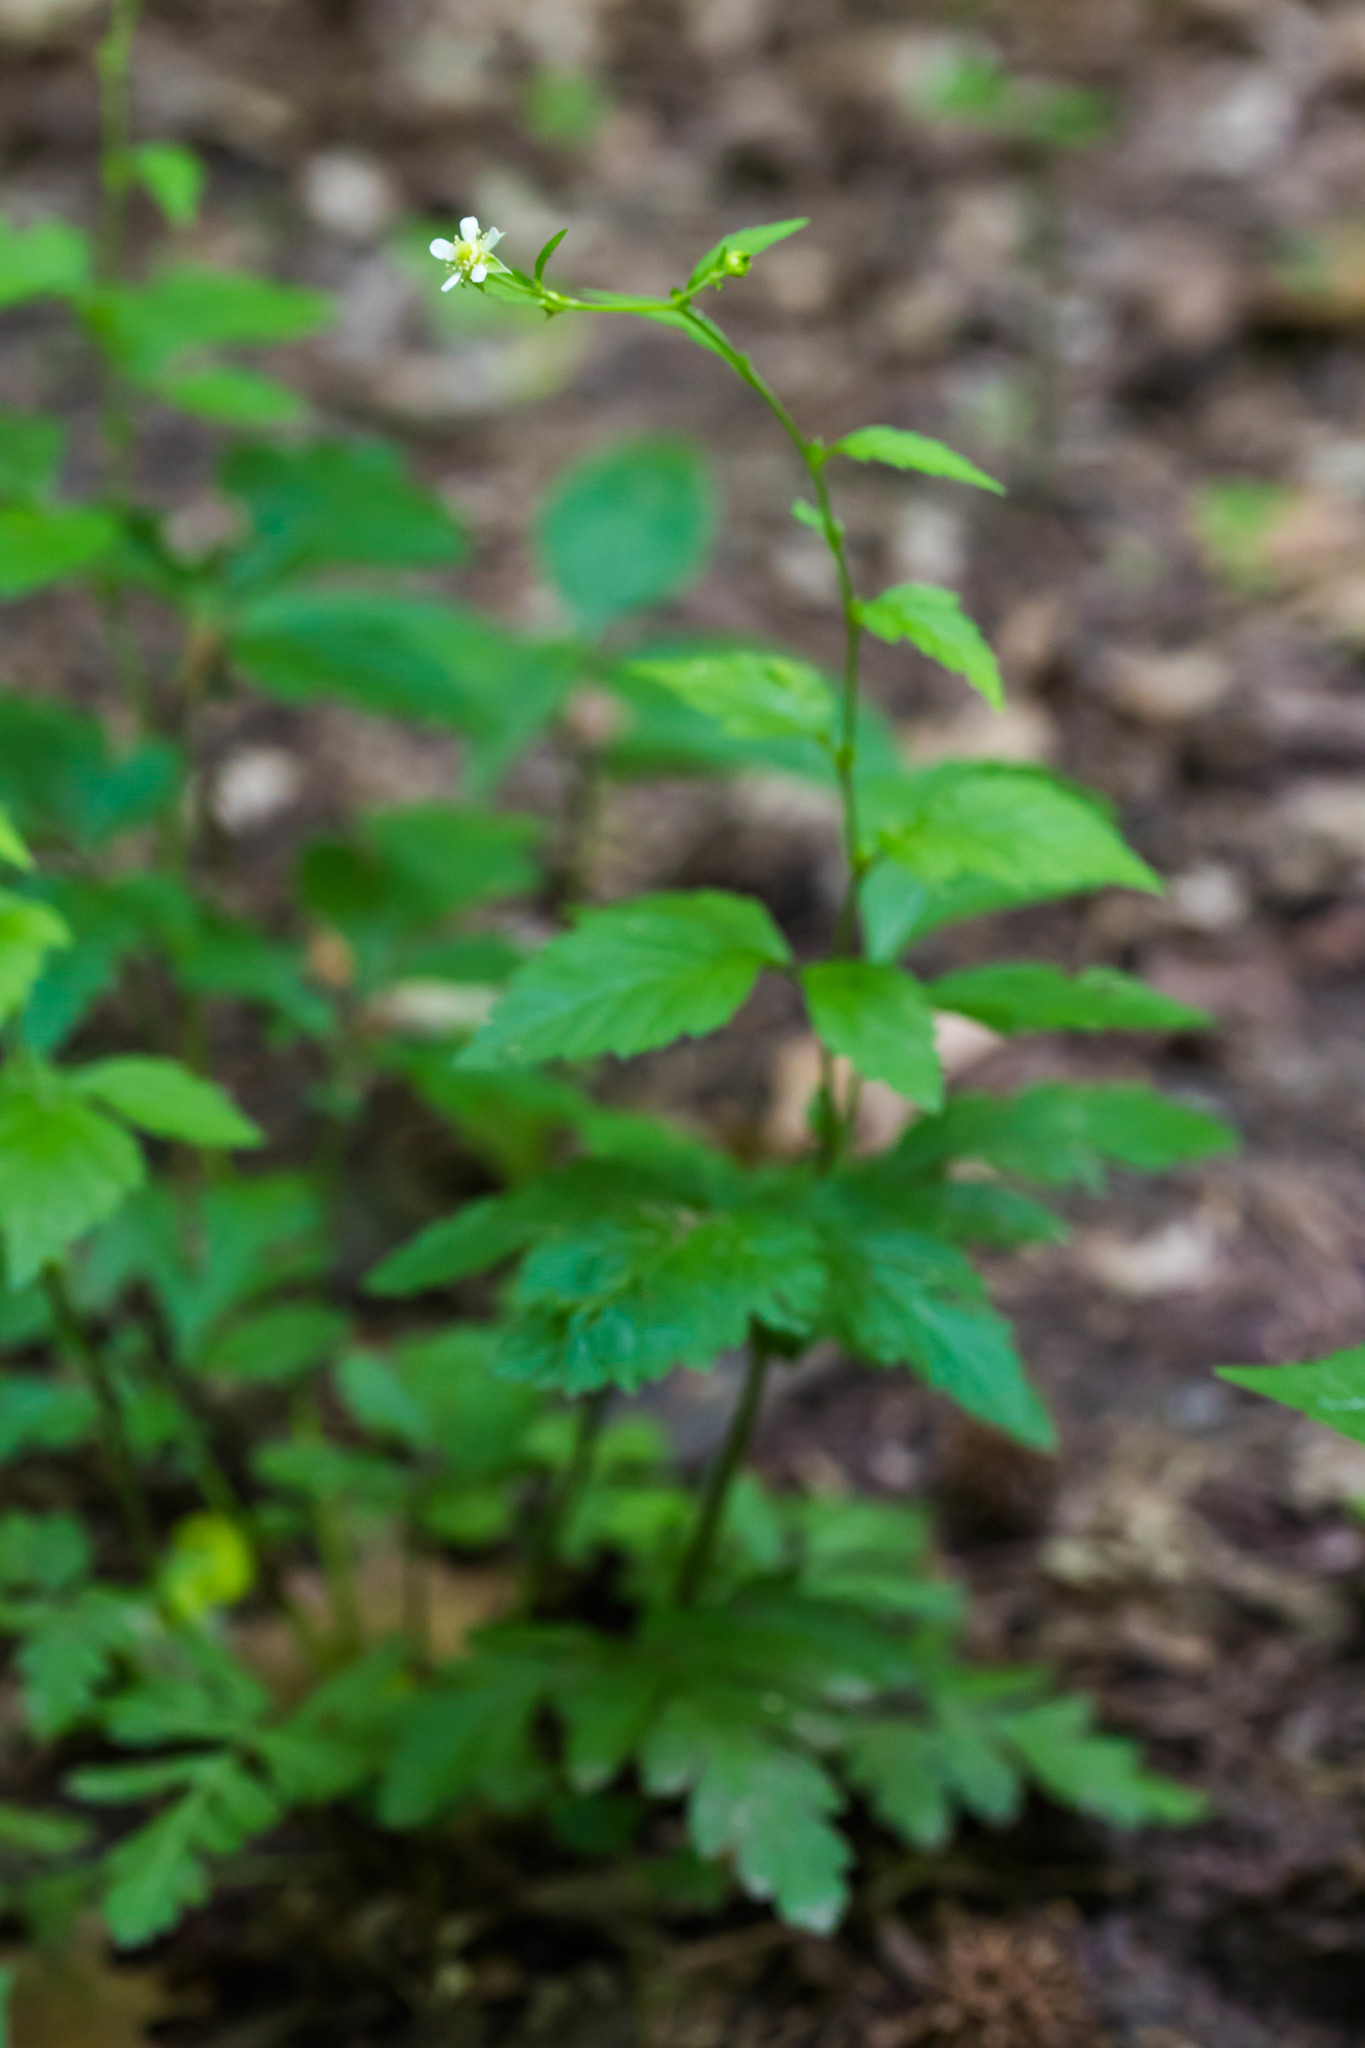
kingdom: Plantae
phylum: Tracheophyta
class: Magnoliopsida
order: Rosales
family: Rosaceae
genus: Geum
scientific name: Geum canadense
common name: White avens
